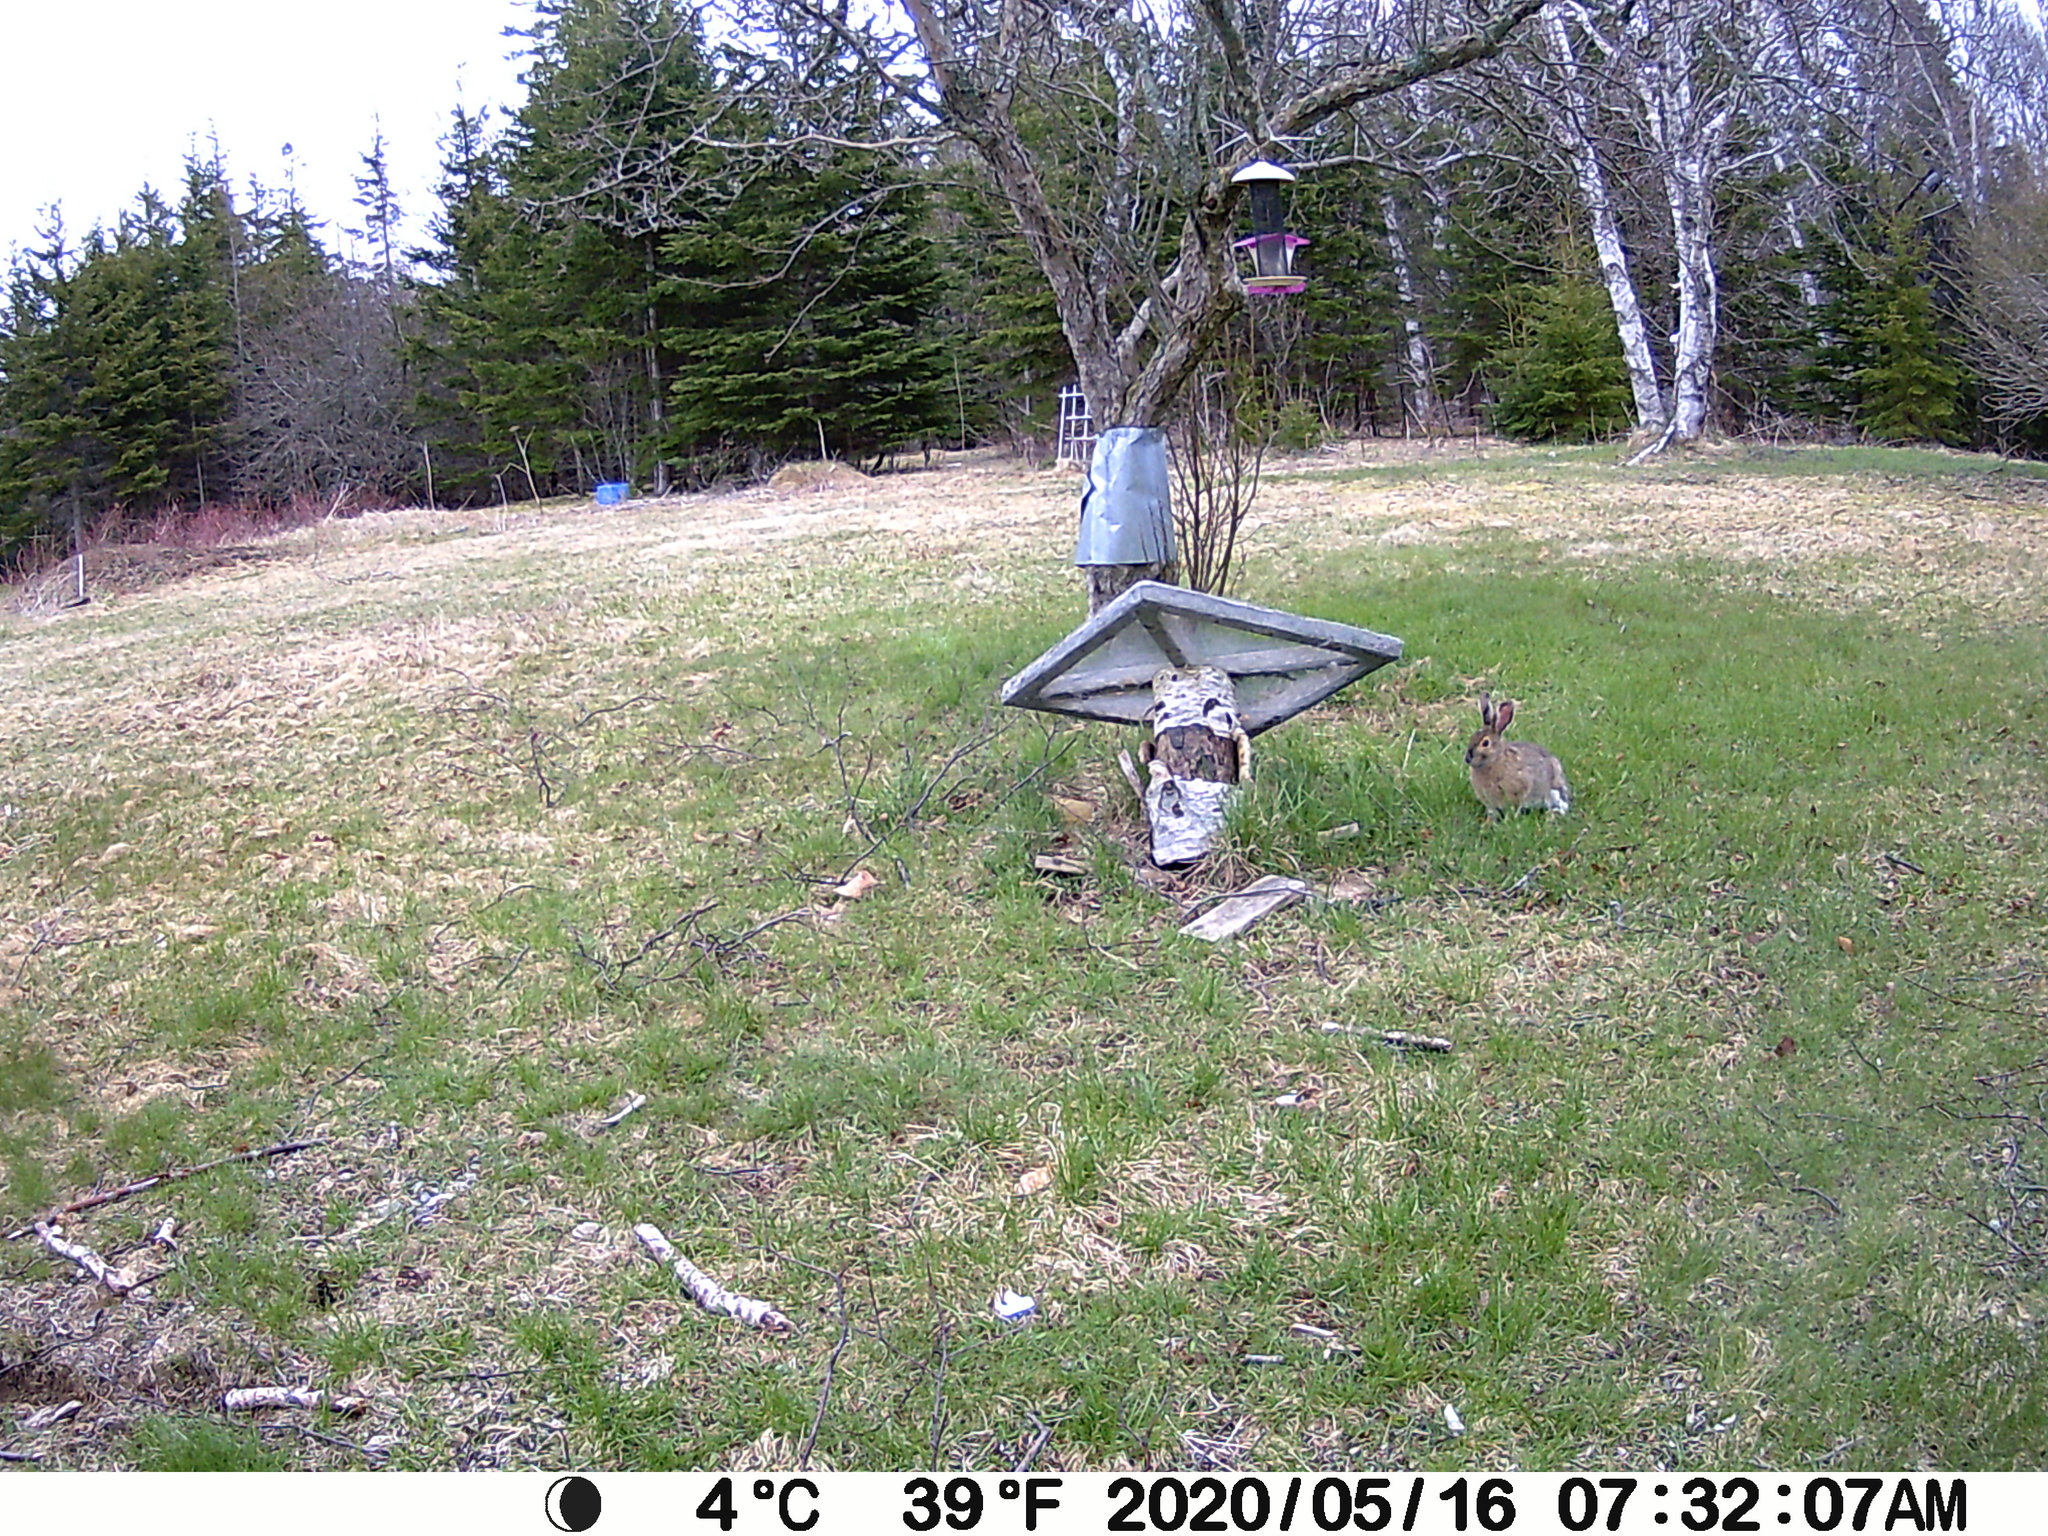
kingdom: Animalia
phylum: Chordata
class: Mammalia
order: Lagomorpha
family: Leporidae
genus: Lepus
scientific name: Lepus americanus
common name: Snowshoe hare
